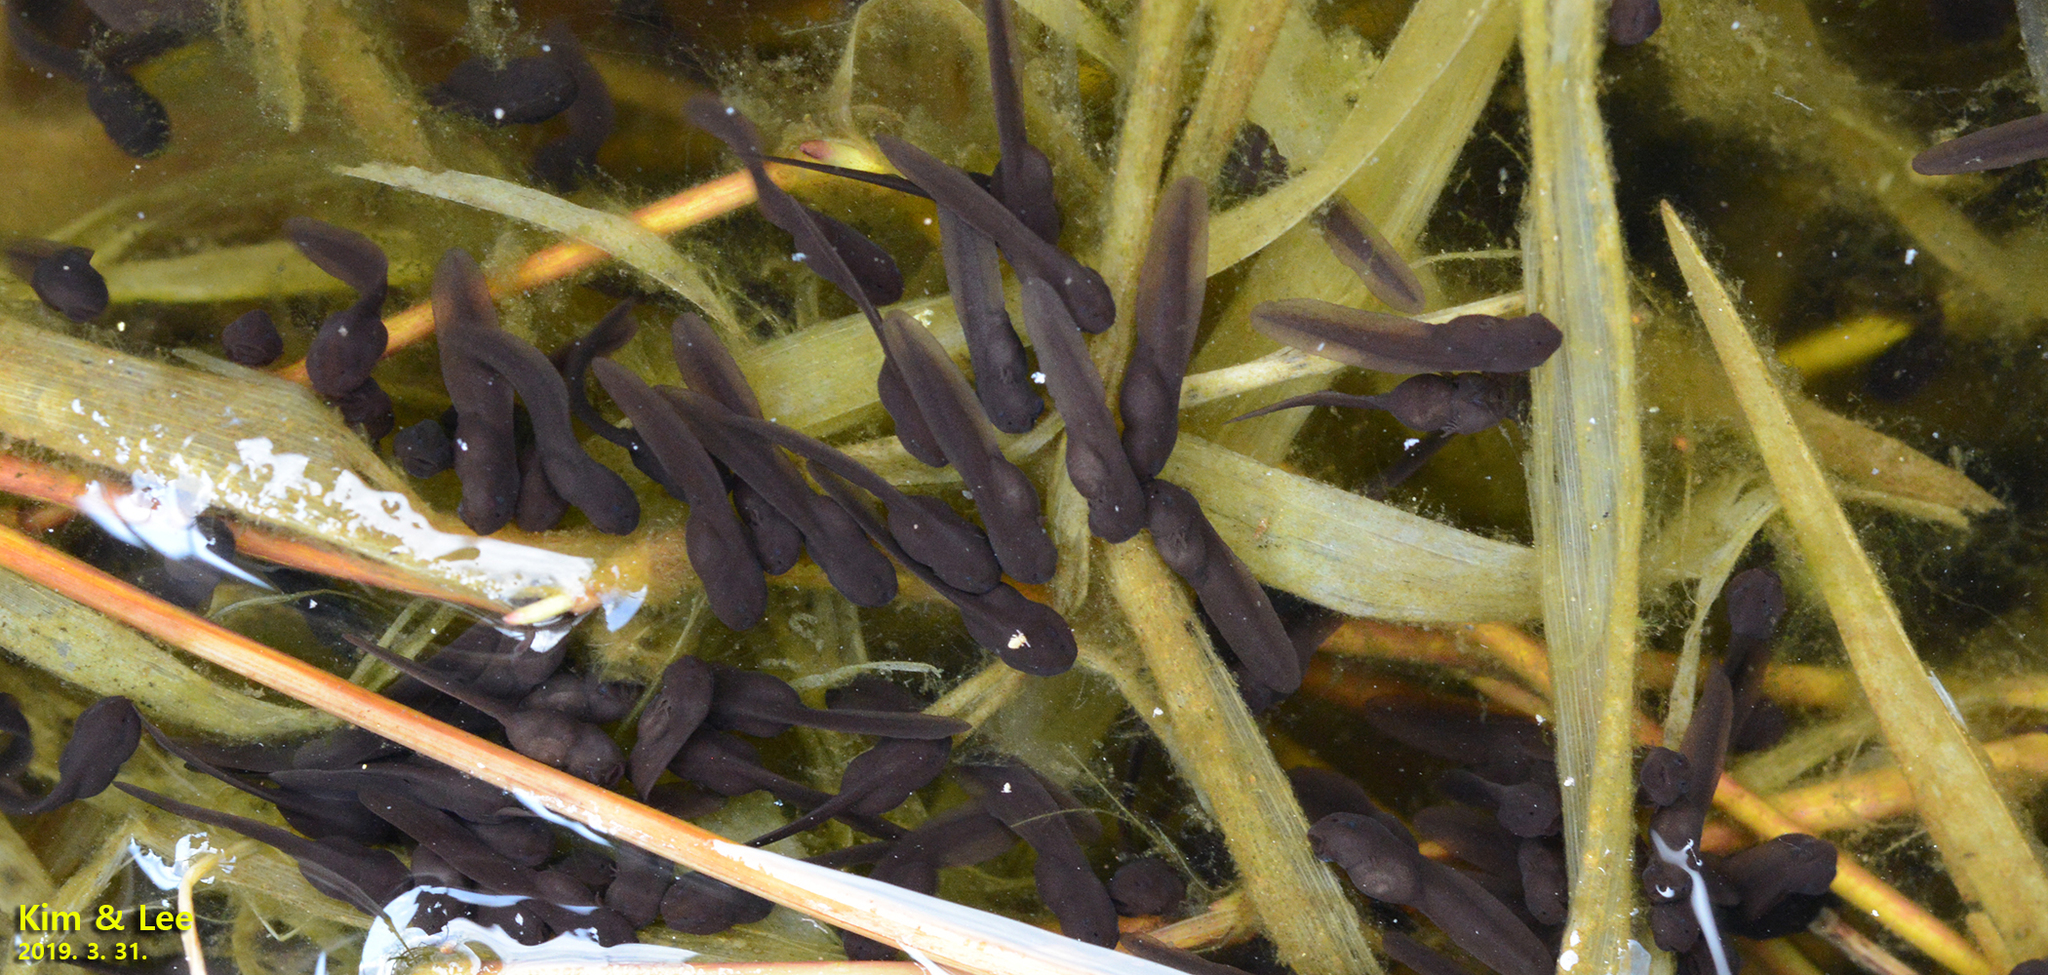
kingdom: Animalia
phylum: Chordata
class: Amphibia
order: Anura
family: Bufonidae
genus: Bufo
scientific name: Bufo gargarizans
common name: Asiatic toad
